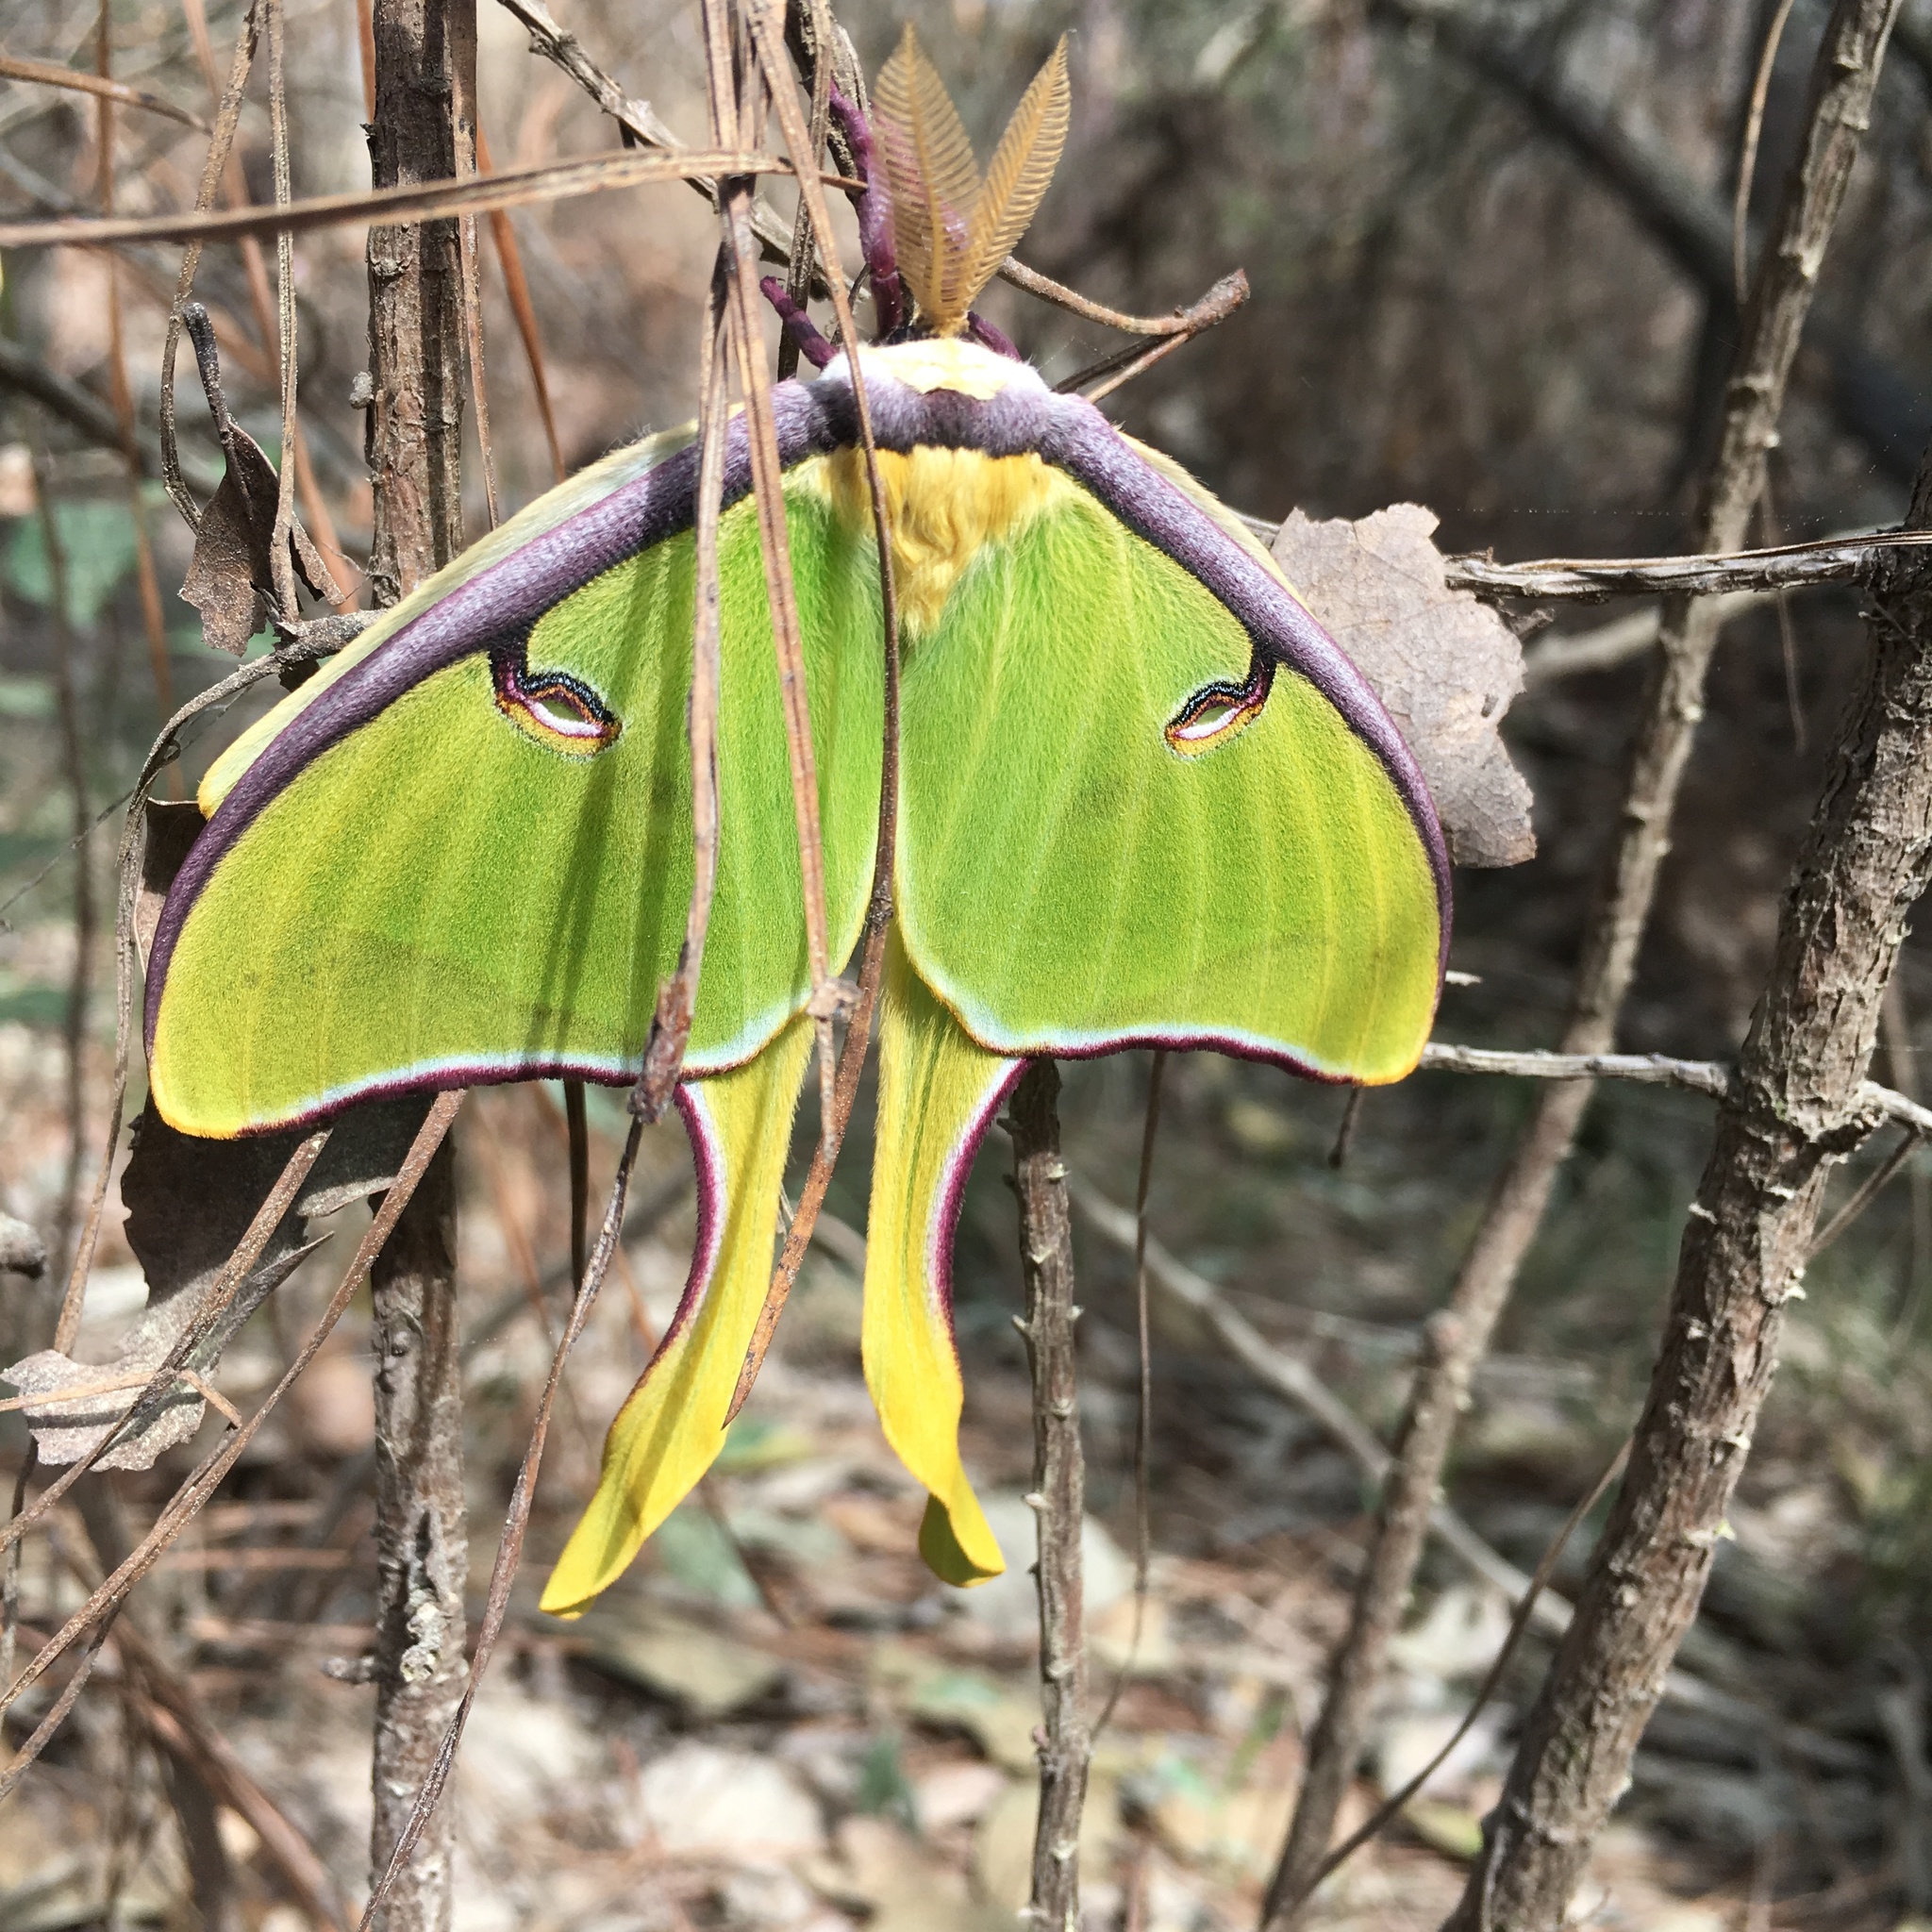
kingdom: Animalia
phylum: Arthropoda
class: Insecta
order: Lepidoptera
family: Saturniidae
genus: Actias
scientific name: Actias luna
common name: Luna moth
